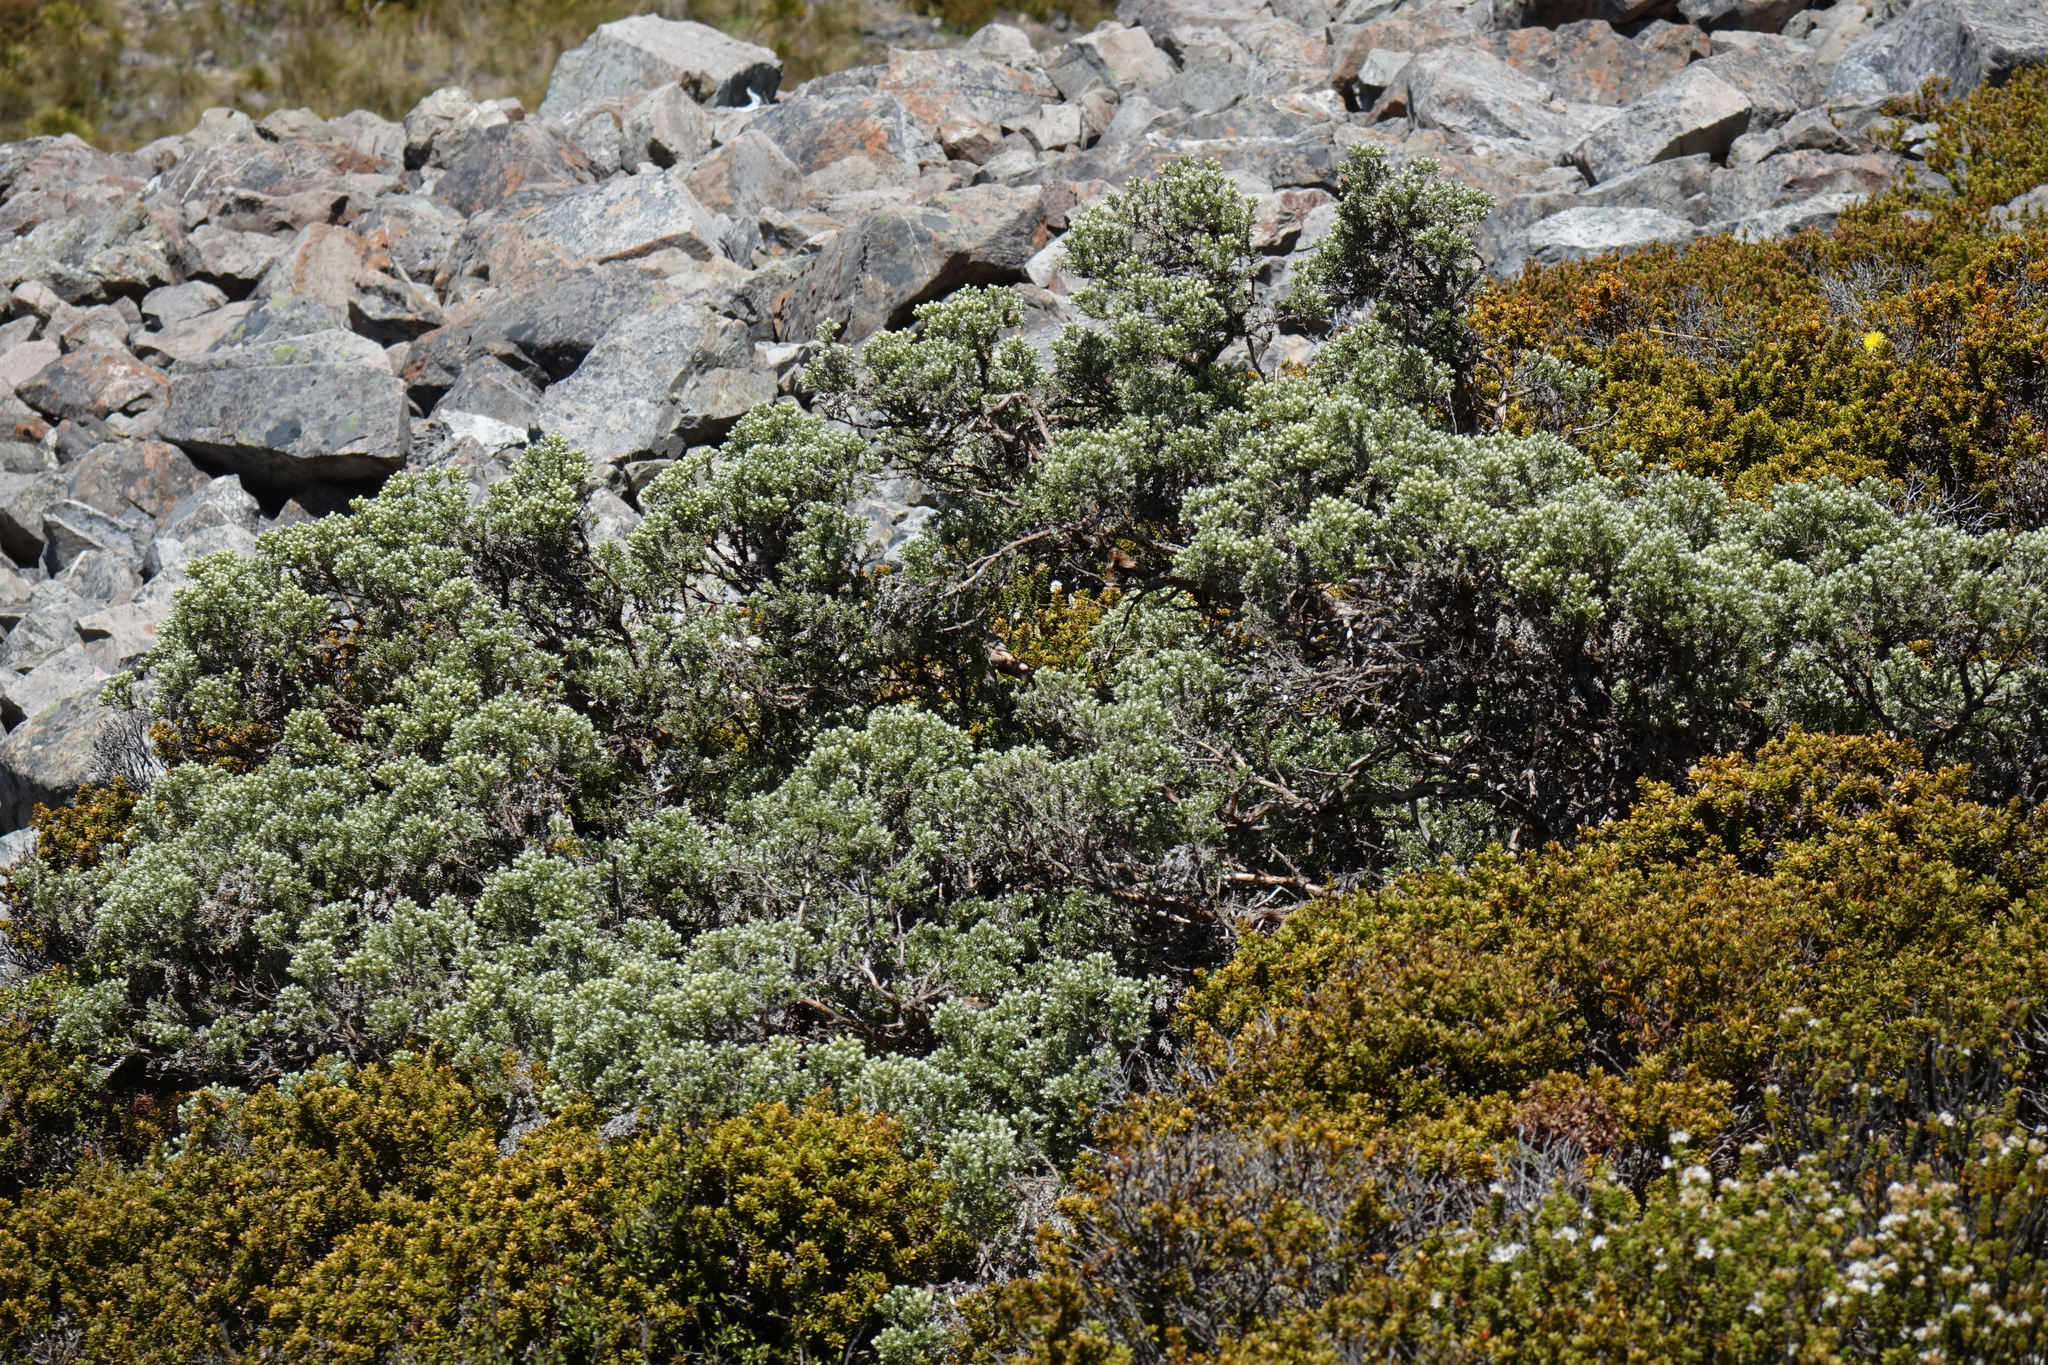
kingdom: Plantae
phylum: Tracheophyta
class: Magnoliopsida
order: Asterales
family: Asteraceae
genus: Brachyglottis
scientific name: Brachyglottis cassinioides
